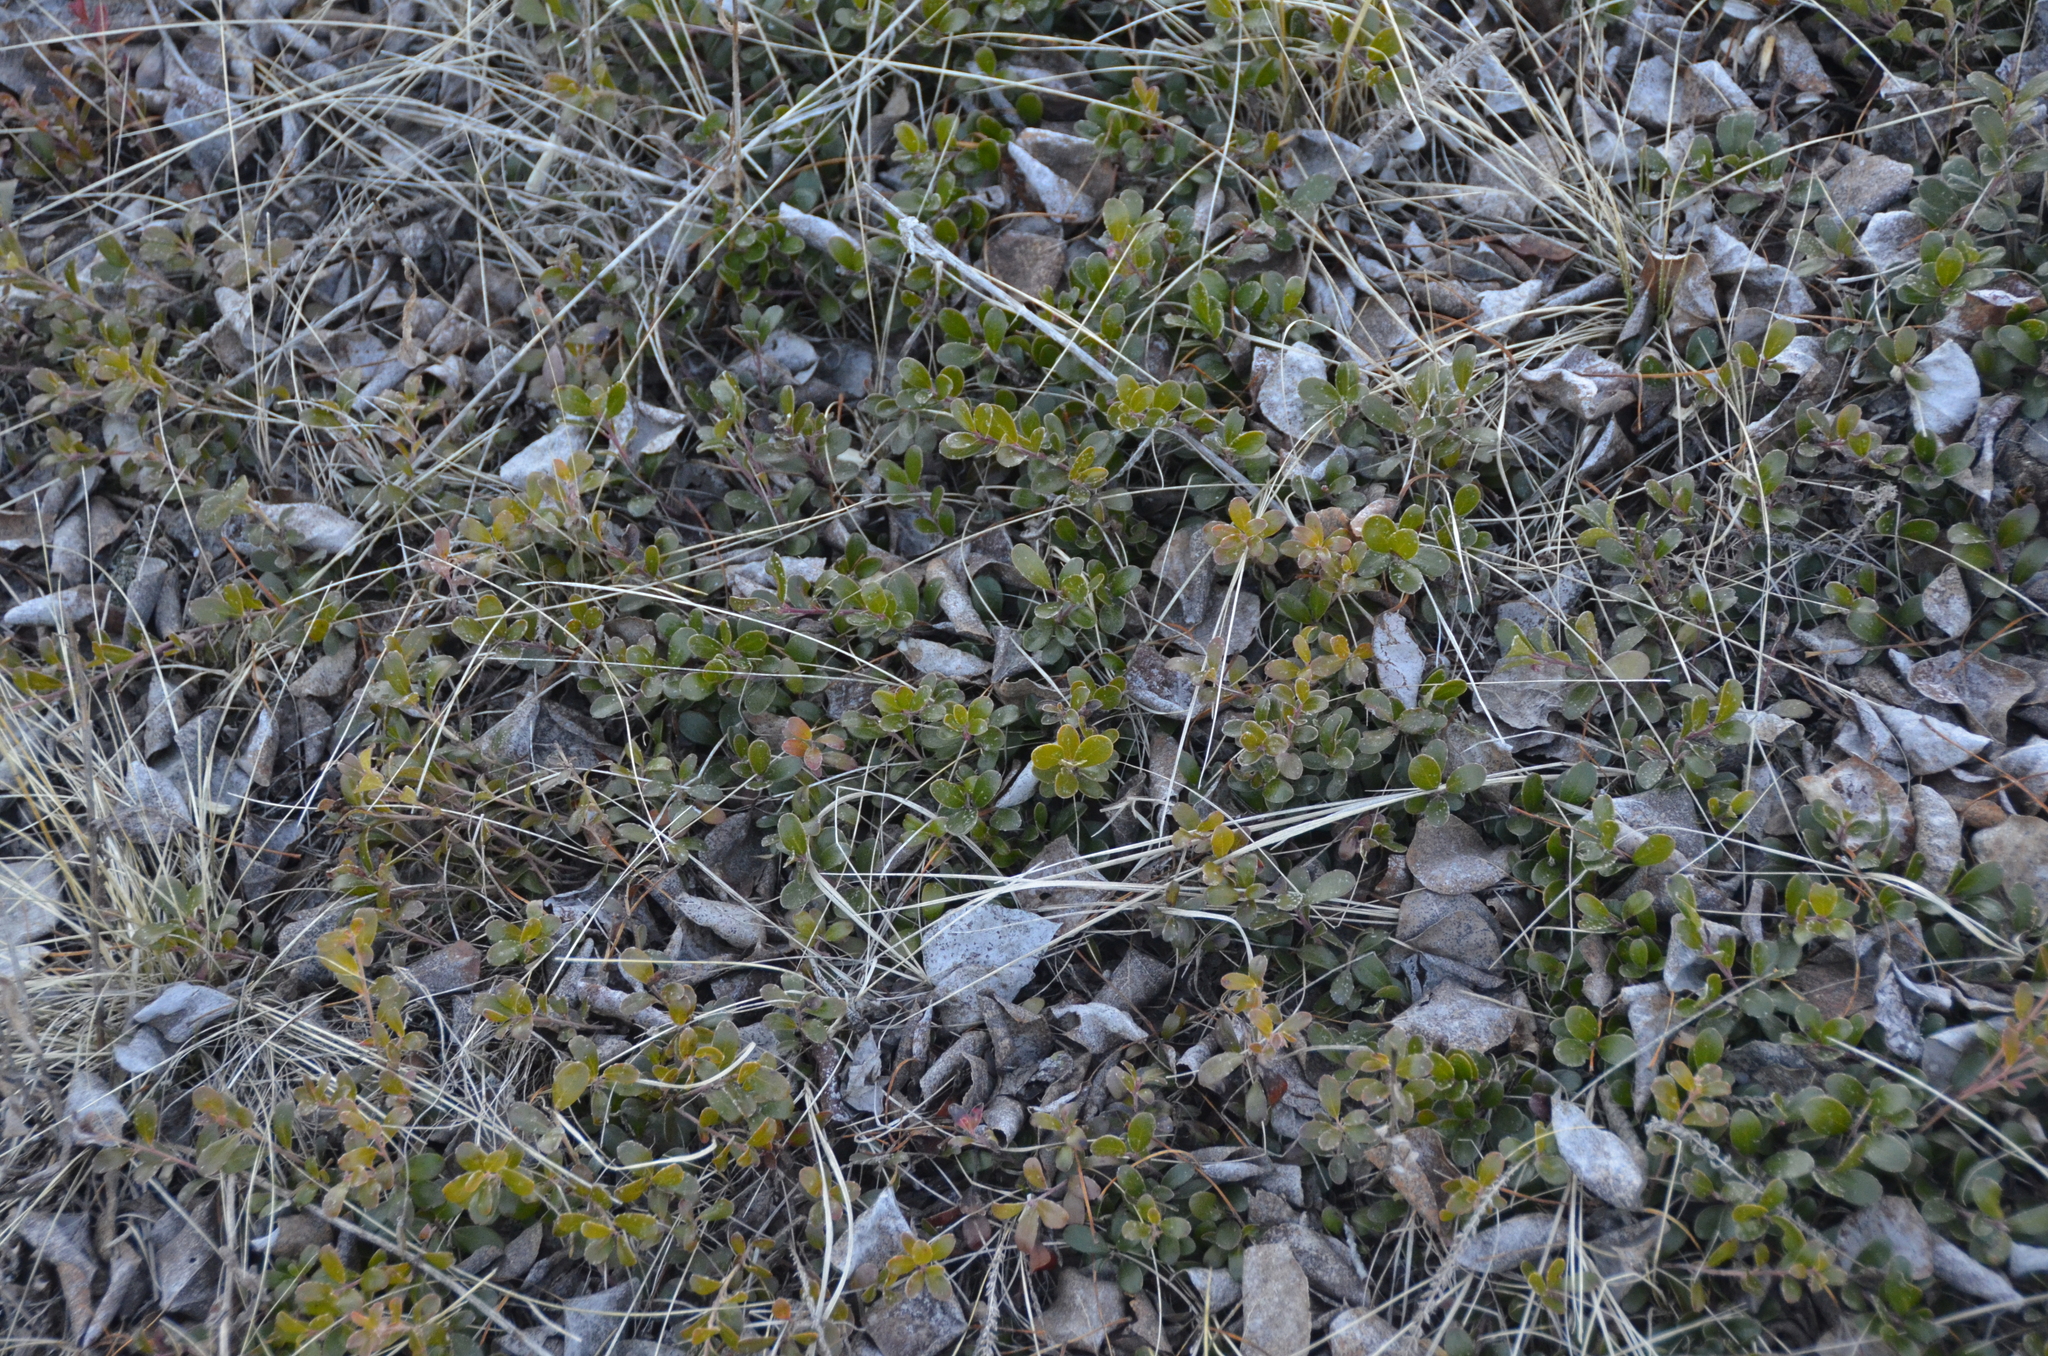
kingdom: Plantae
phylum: Tracheophyta
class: Magnoliopsida
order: Ericales
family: Ericaceae
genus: Arctostaphylos
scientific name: Arctostaphylos uva-ursi
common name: Bearberry
